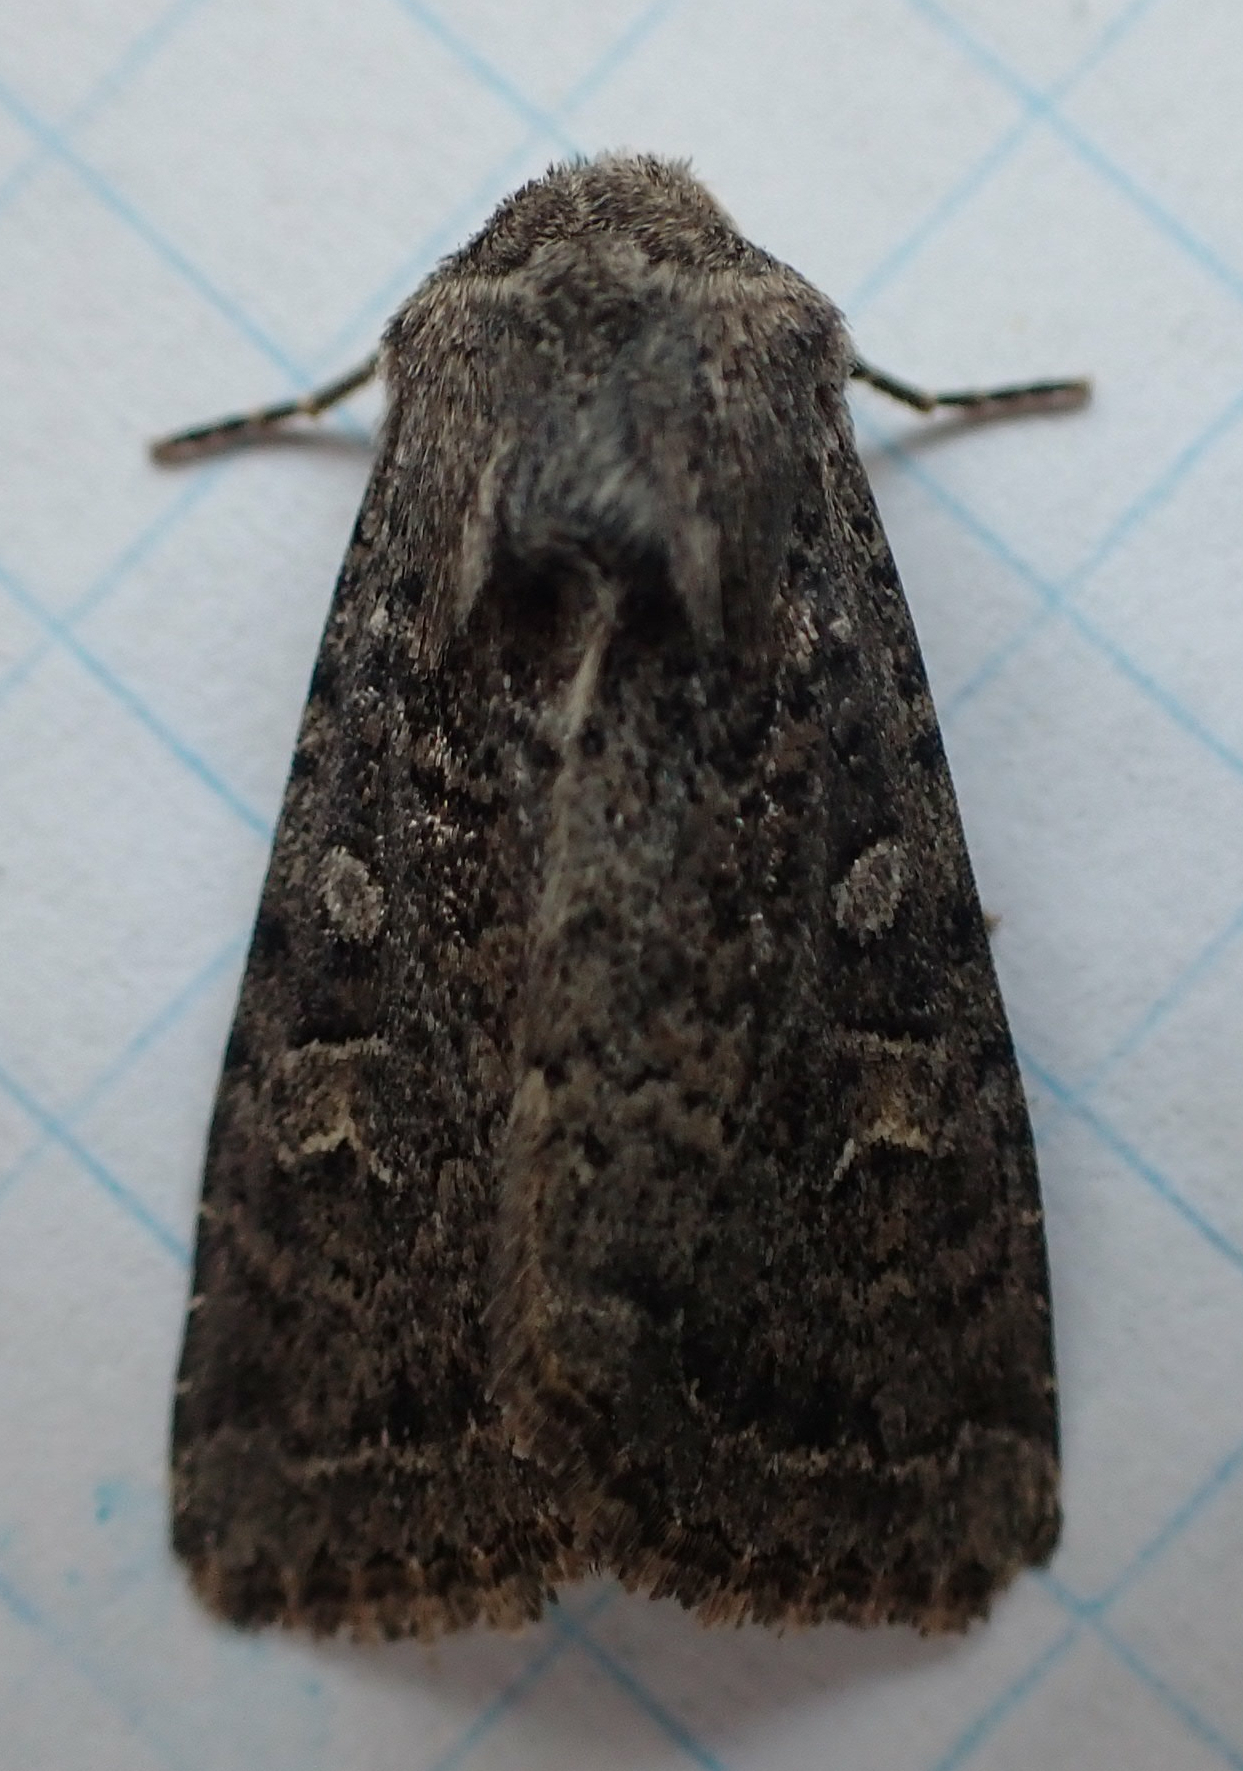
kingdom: Animalia
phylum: Arthropoda
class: Insecta
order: Lepidoptera
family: Noctuidae
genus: Apamea
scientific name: Apamea devastator
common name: Glassy cutworm
